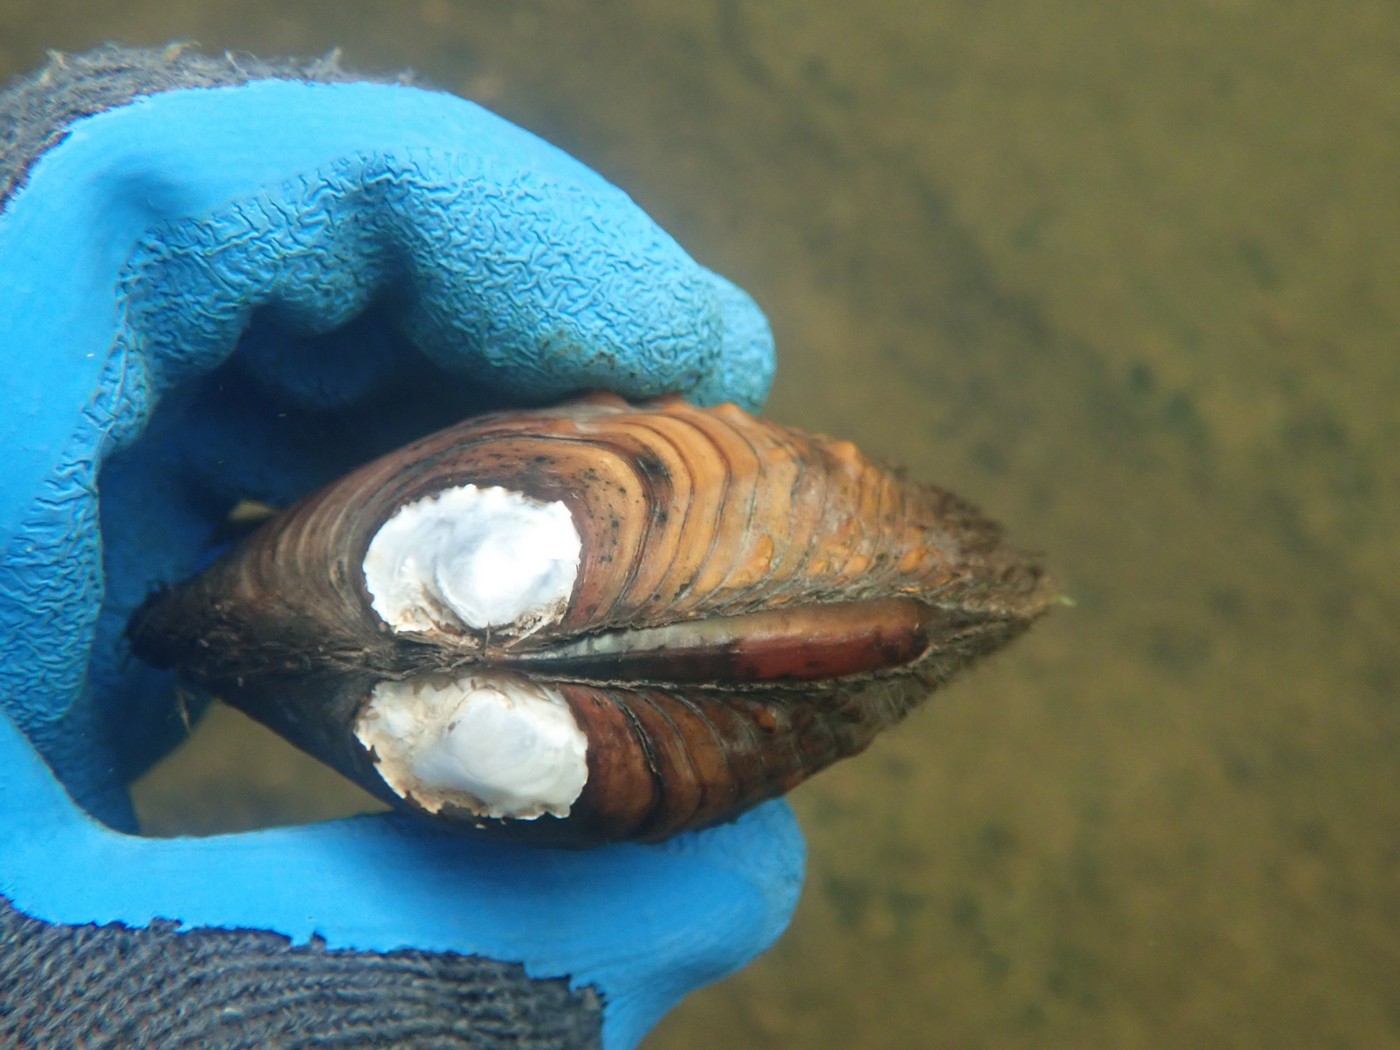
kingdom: Animalia
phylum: Mollusca
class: Bivalvia
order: Unionida
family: Unionidae
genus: Cyclonaias
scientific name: Cyclonaias pustulosa
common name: Pimpleback
